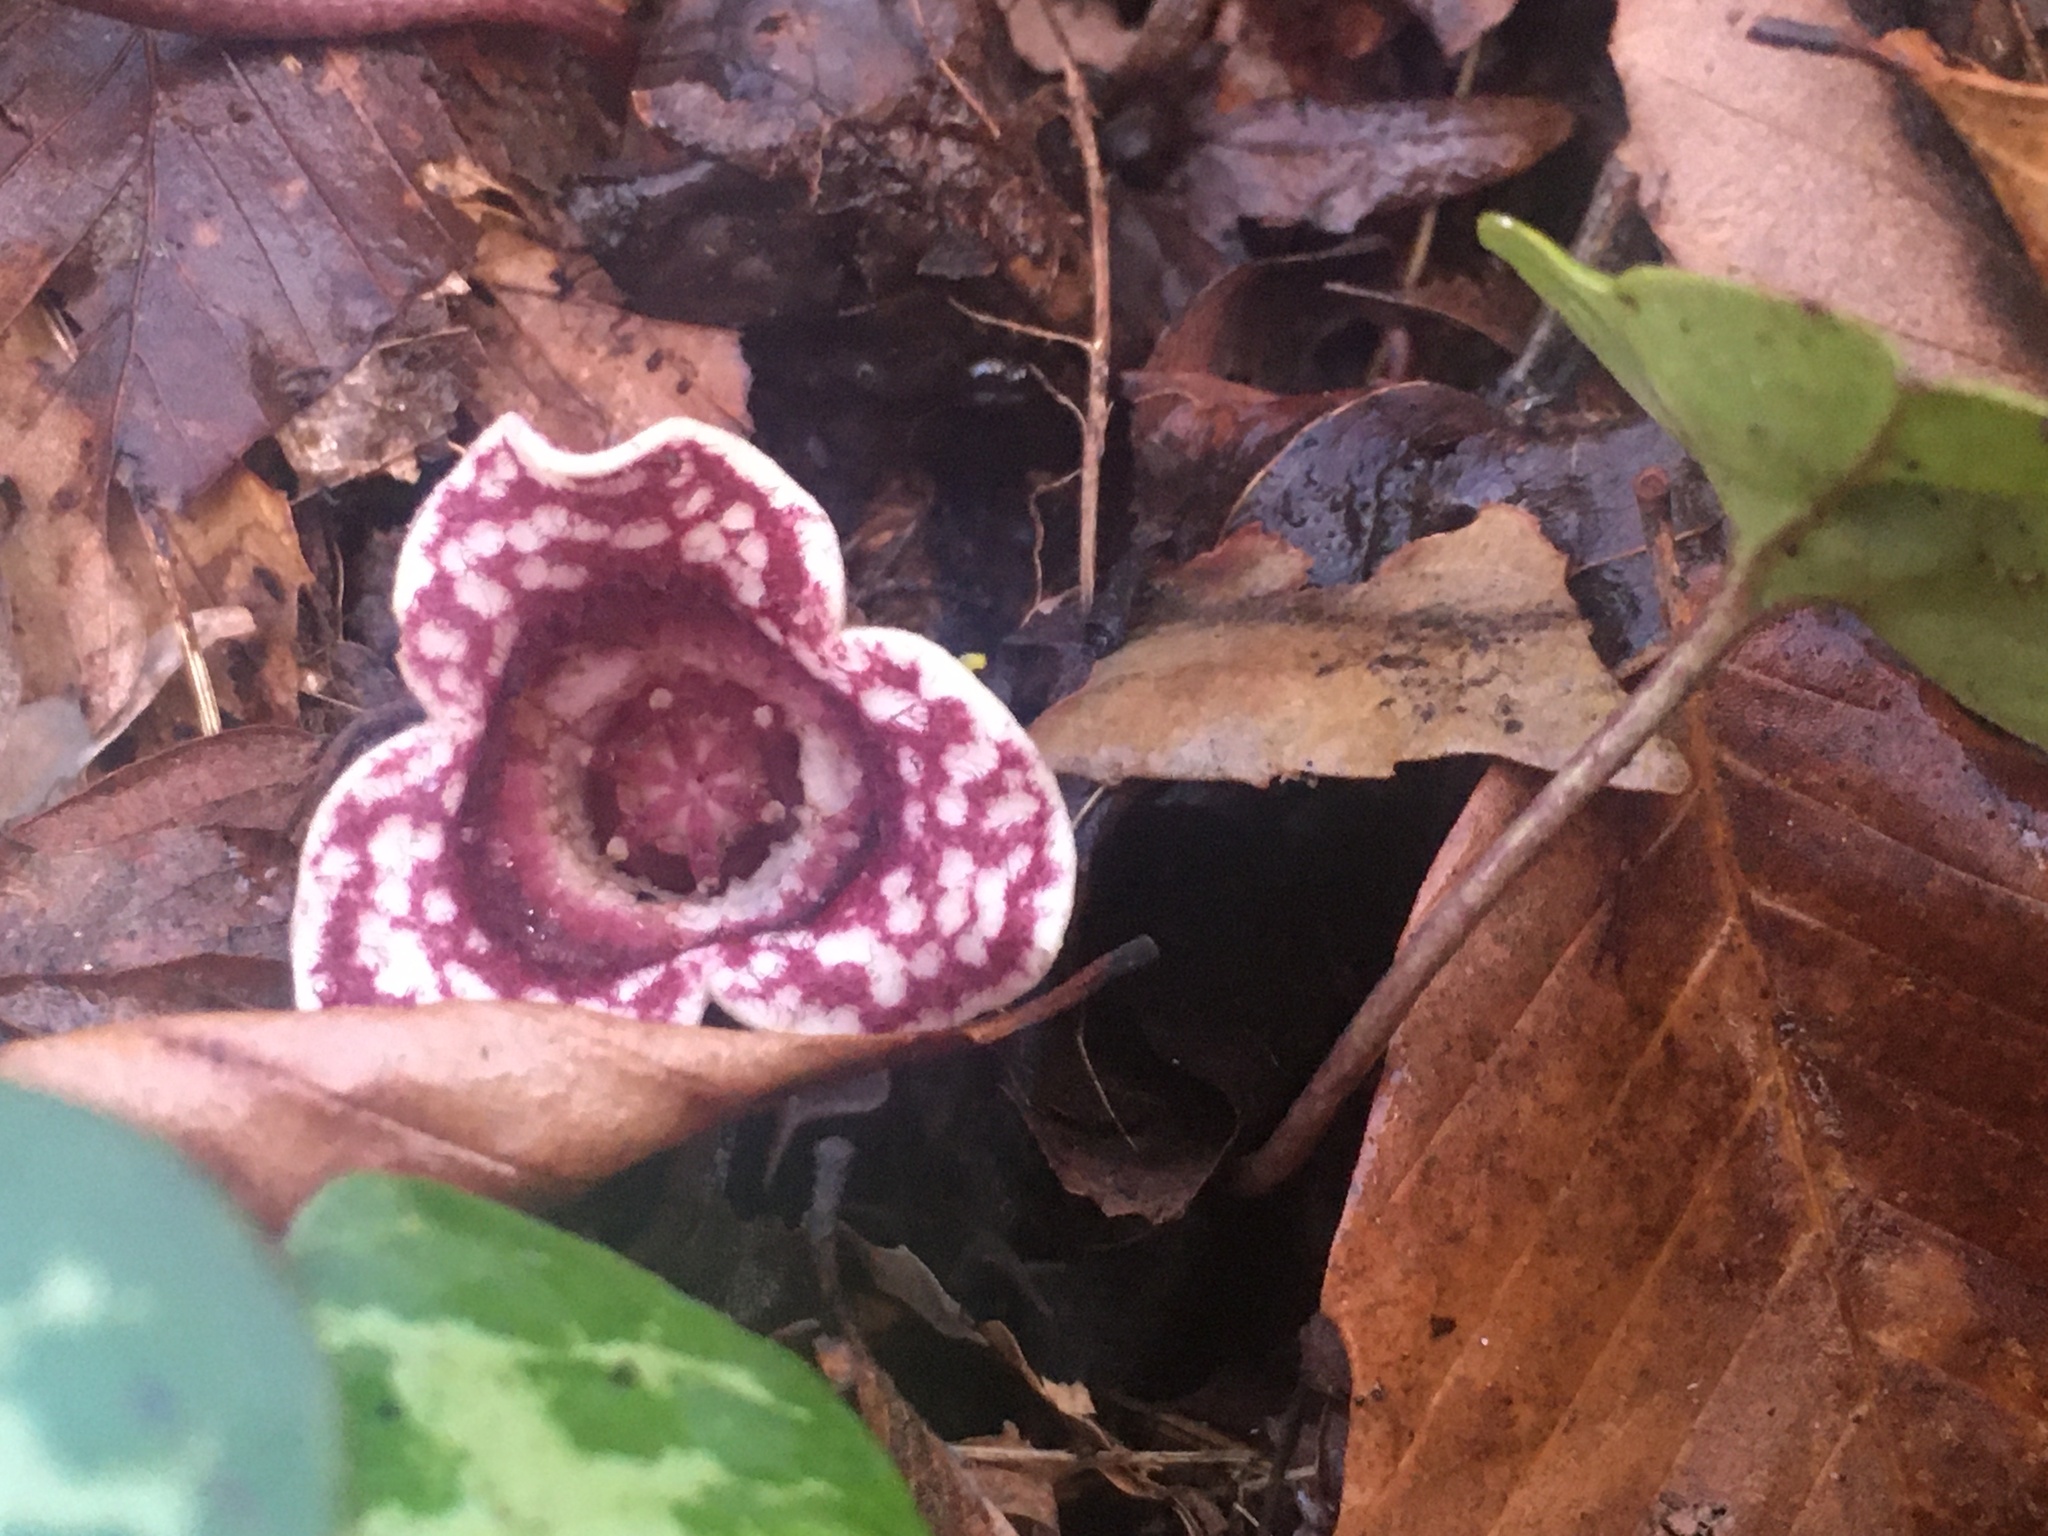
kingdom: Plantae
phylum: Tracheophyta
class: Magnoliopsida
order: Piperales
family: Aristolochiaceae
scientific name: Aristolochiaceae
